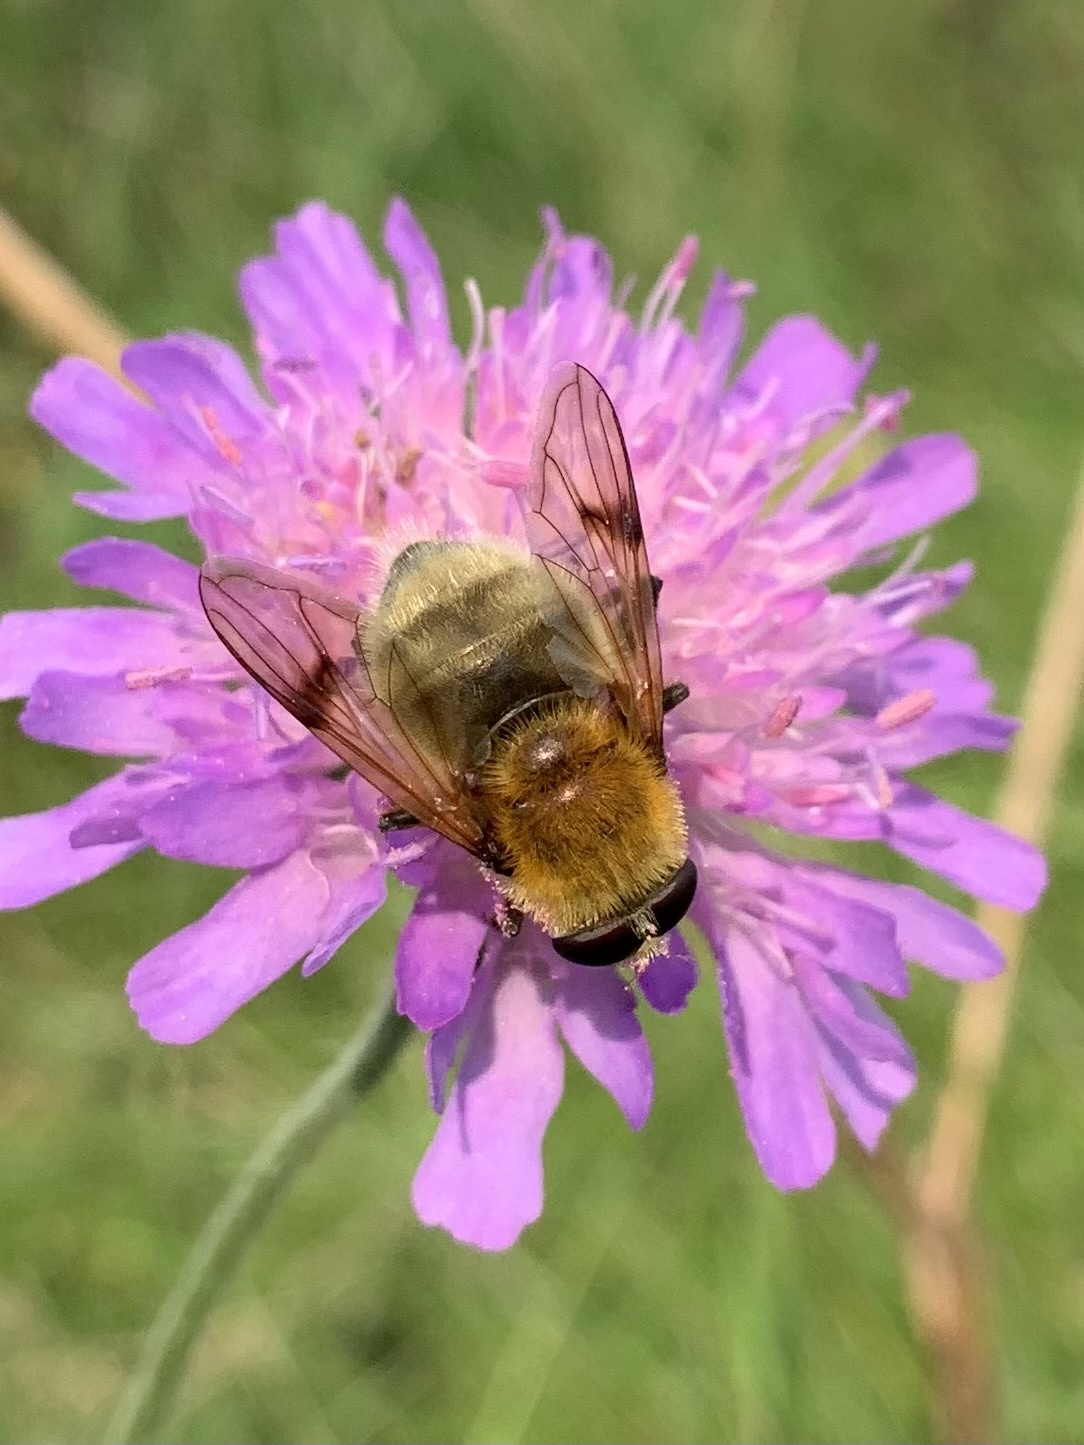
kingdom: Animalia
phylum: Arthropoda
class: Insecta
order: Diptera
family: Syrphidae
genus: Sericomyia
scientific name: Sericomyia superbiens
